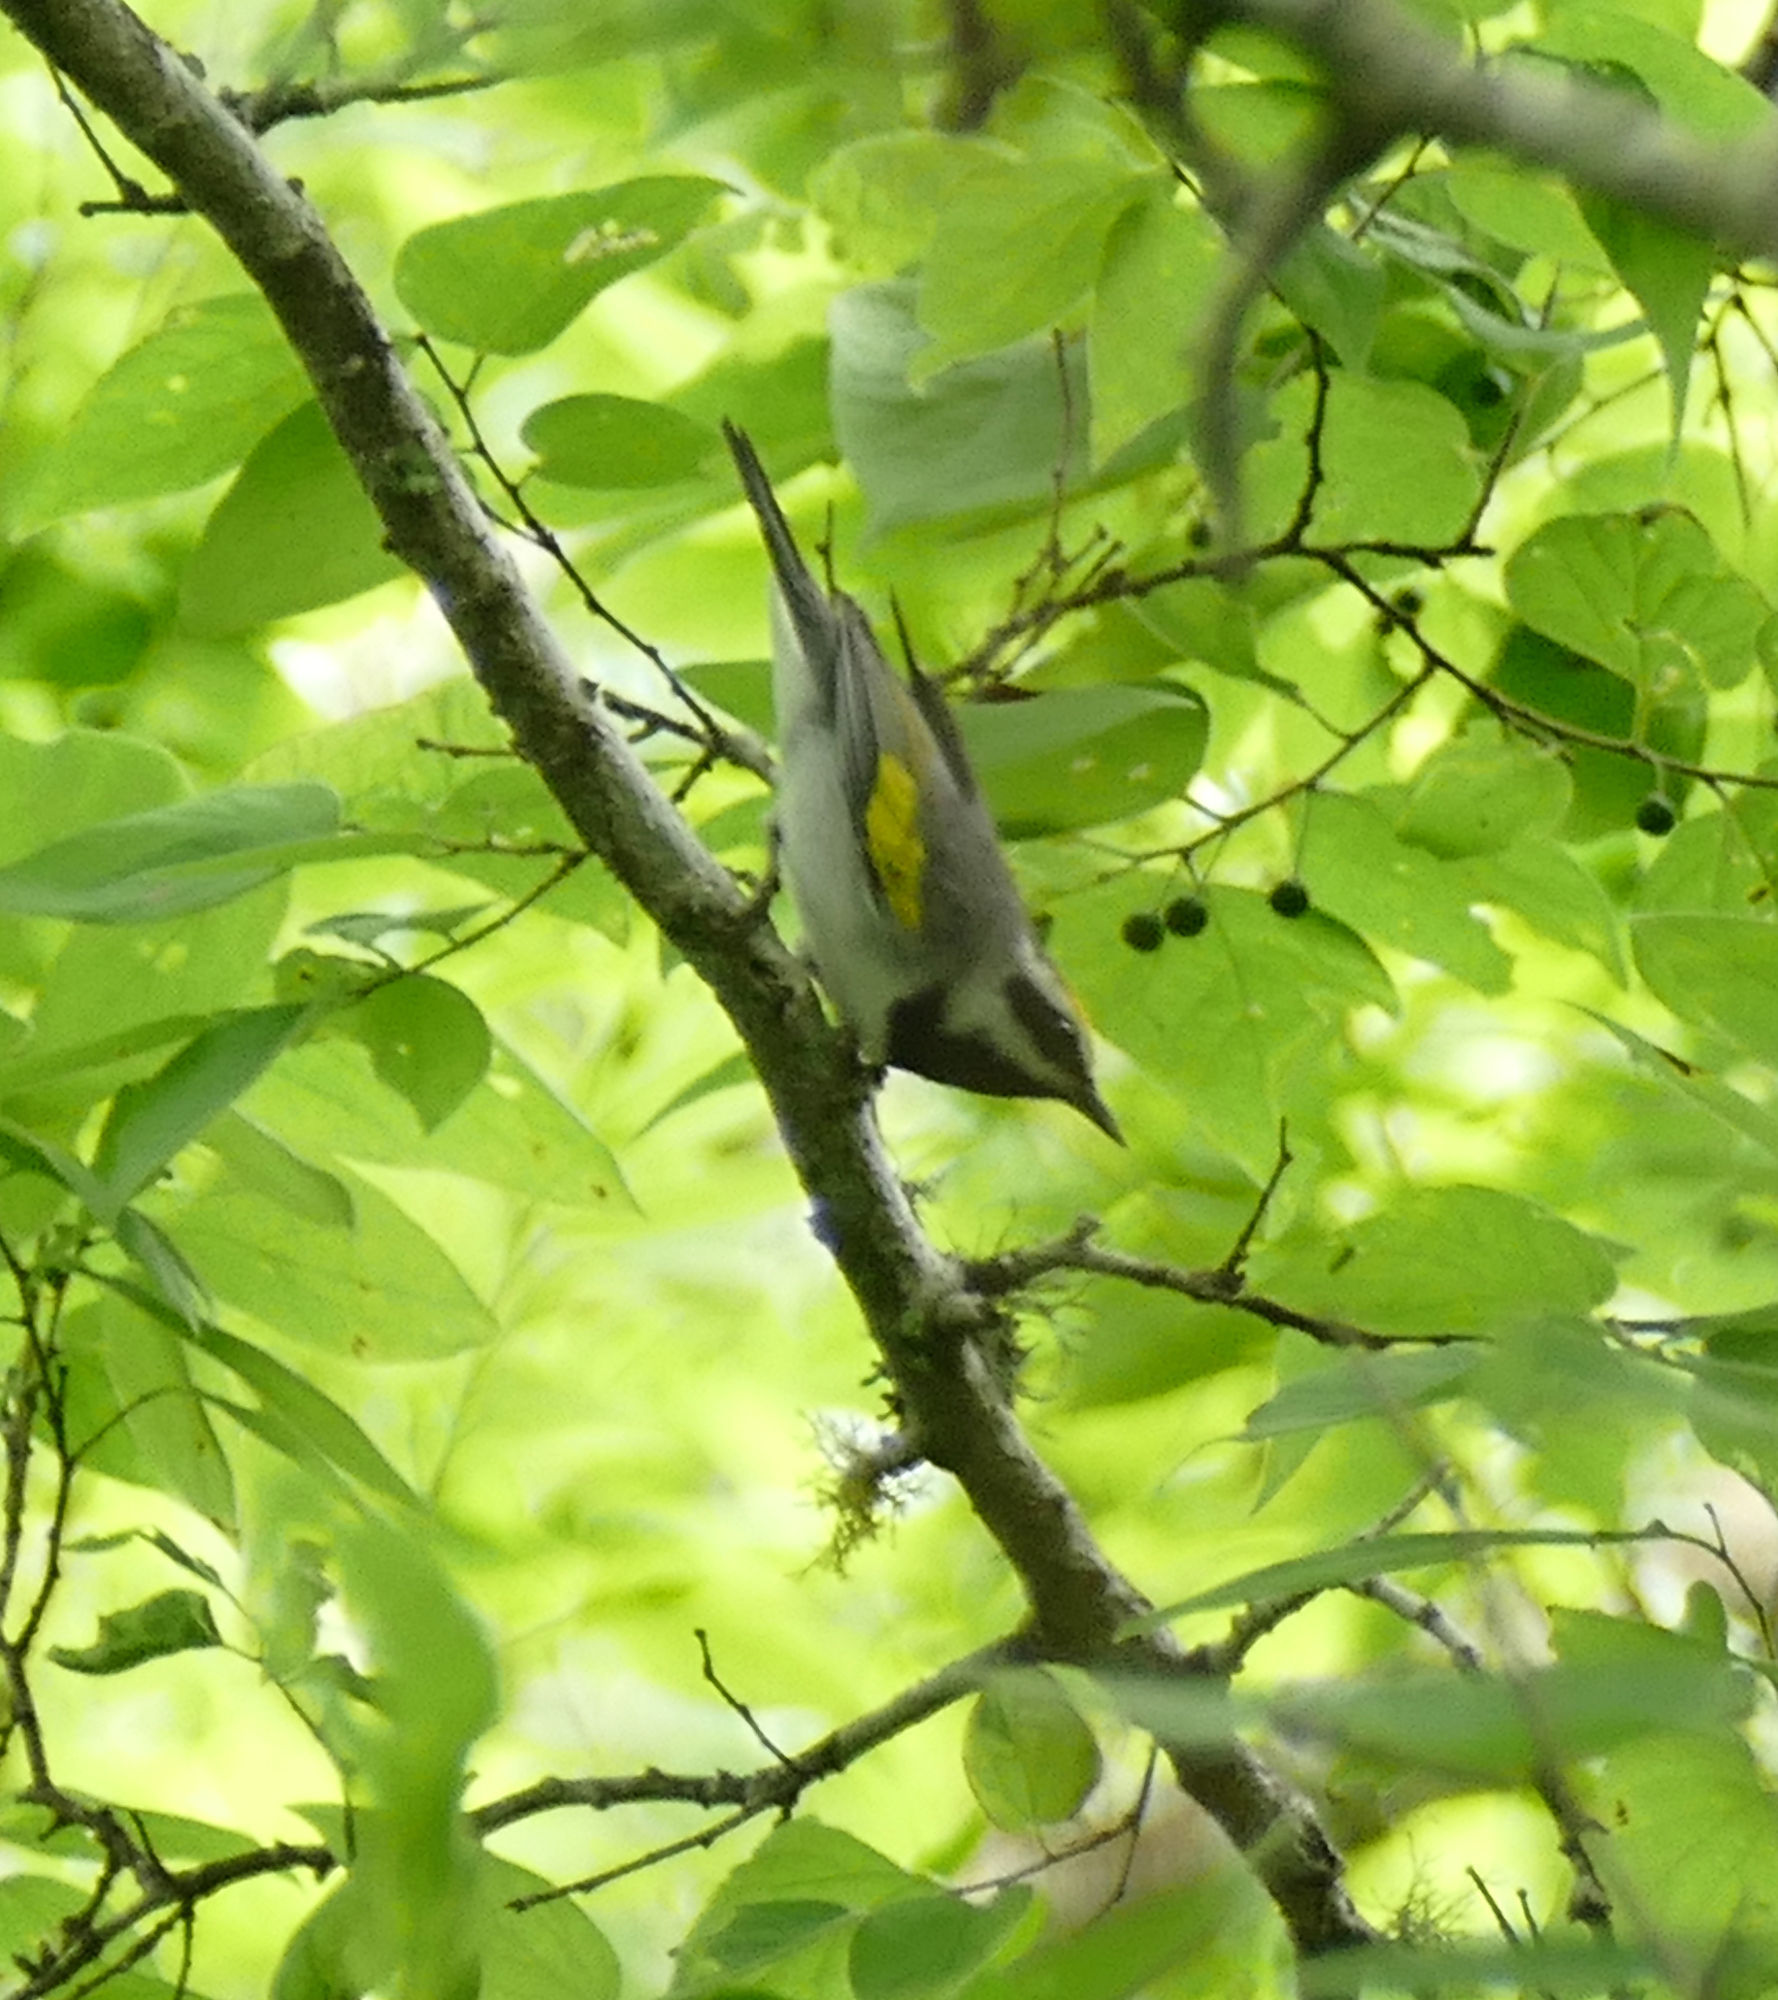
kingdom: Animalia
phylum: Chordata
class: Aves
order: Passeriformes
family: Parulidae
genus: Vermivora
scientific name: Vermivora chrysoptera
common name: Golden-winged warbler
